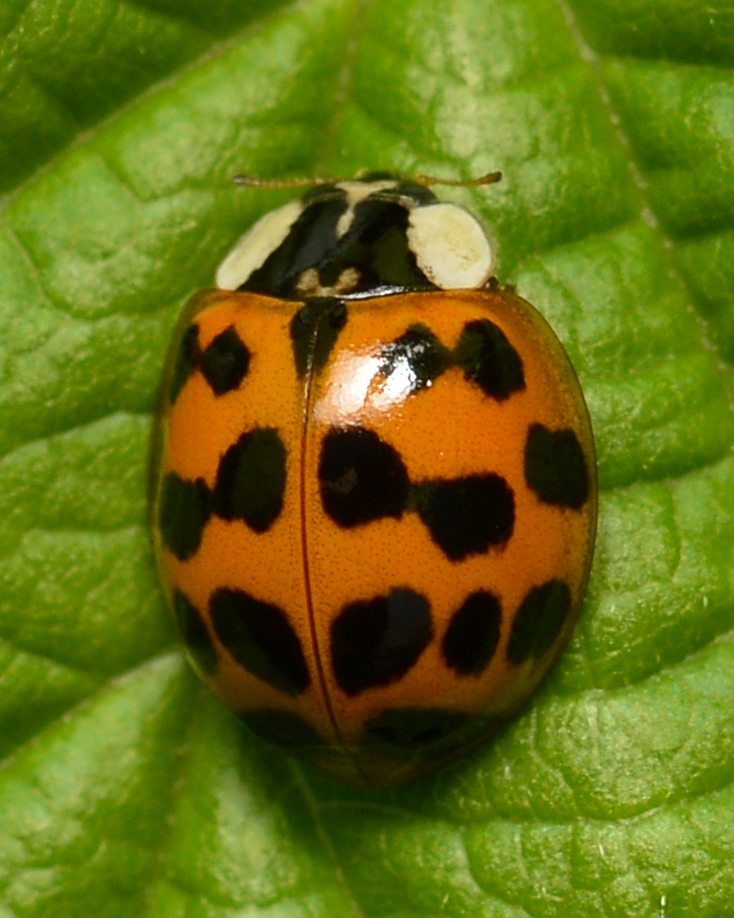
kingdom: Animalia
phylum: Arthropoda
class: Insecta
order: Coleoptera
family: Coccinellidae
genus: Harmonia
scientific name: Harmonia axyridis
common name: Harlequin ladybird
